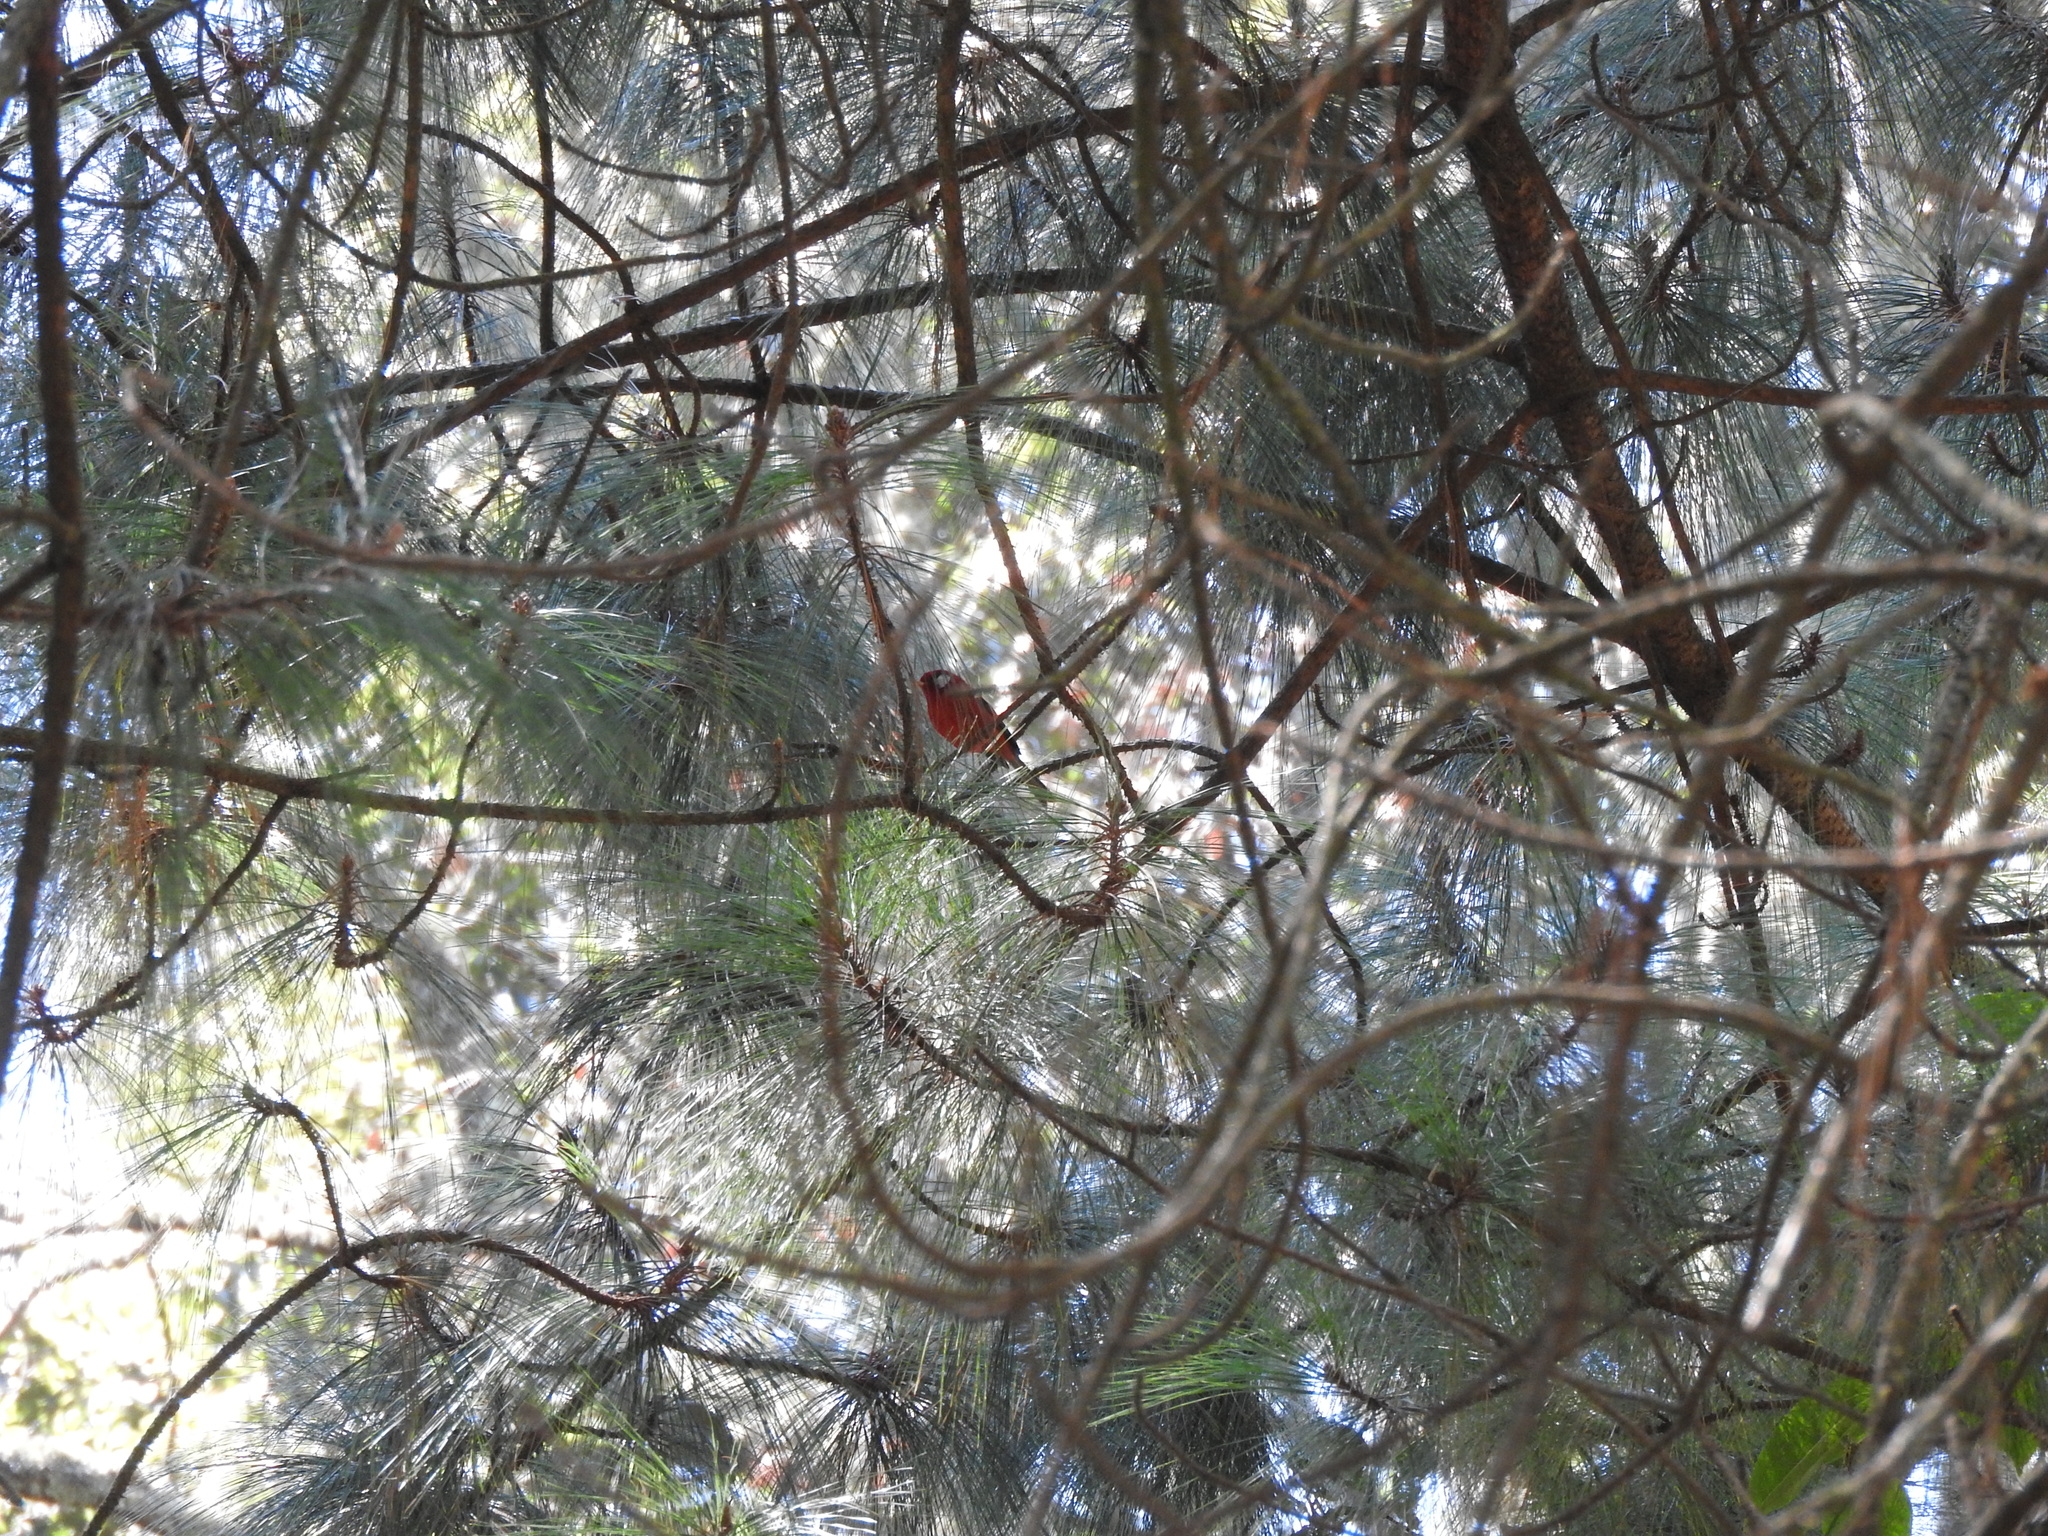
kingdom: Animalia
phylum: Chordata
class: Aves
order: Passeriformes
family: Parulidae
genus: Cardellina
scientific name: Cardellina rubra
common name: Red warbler
